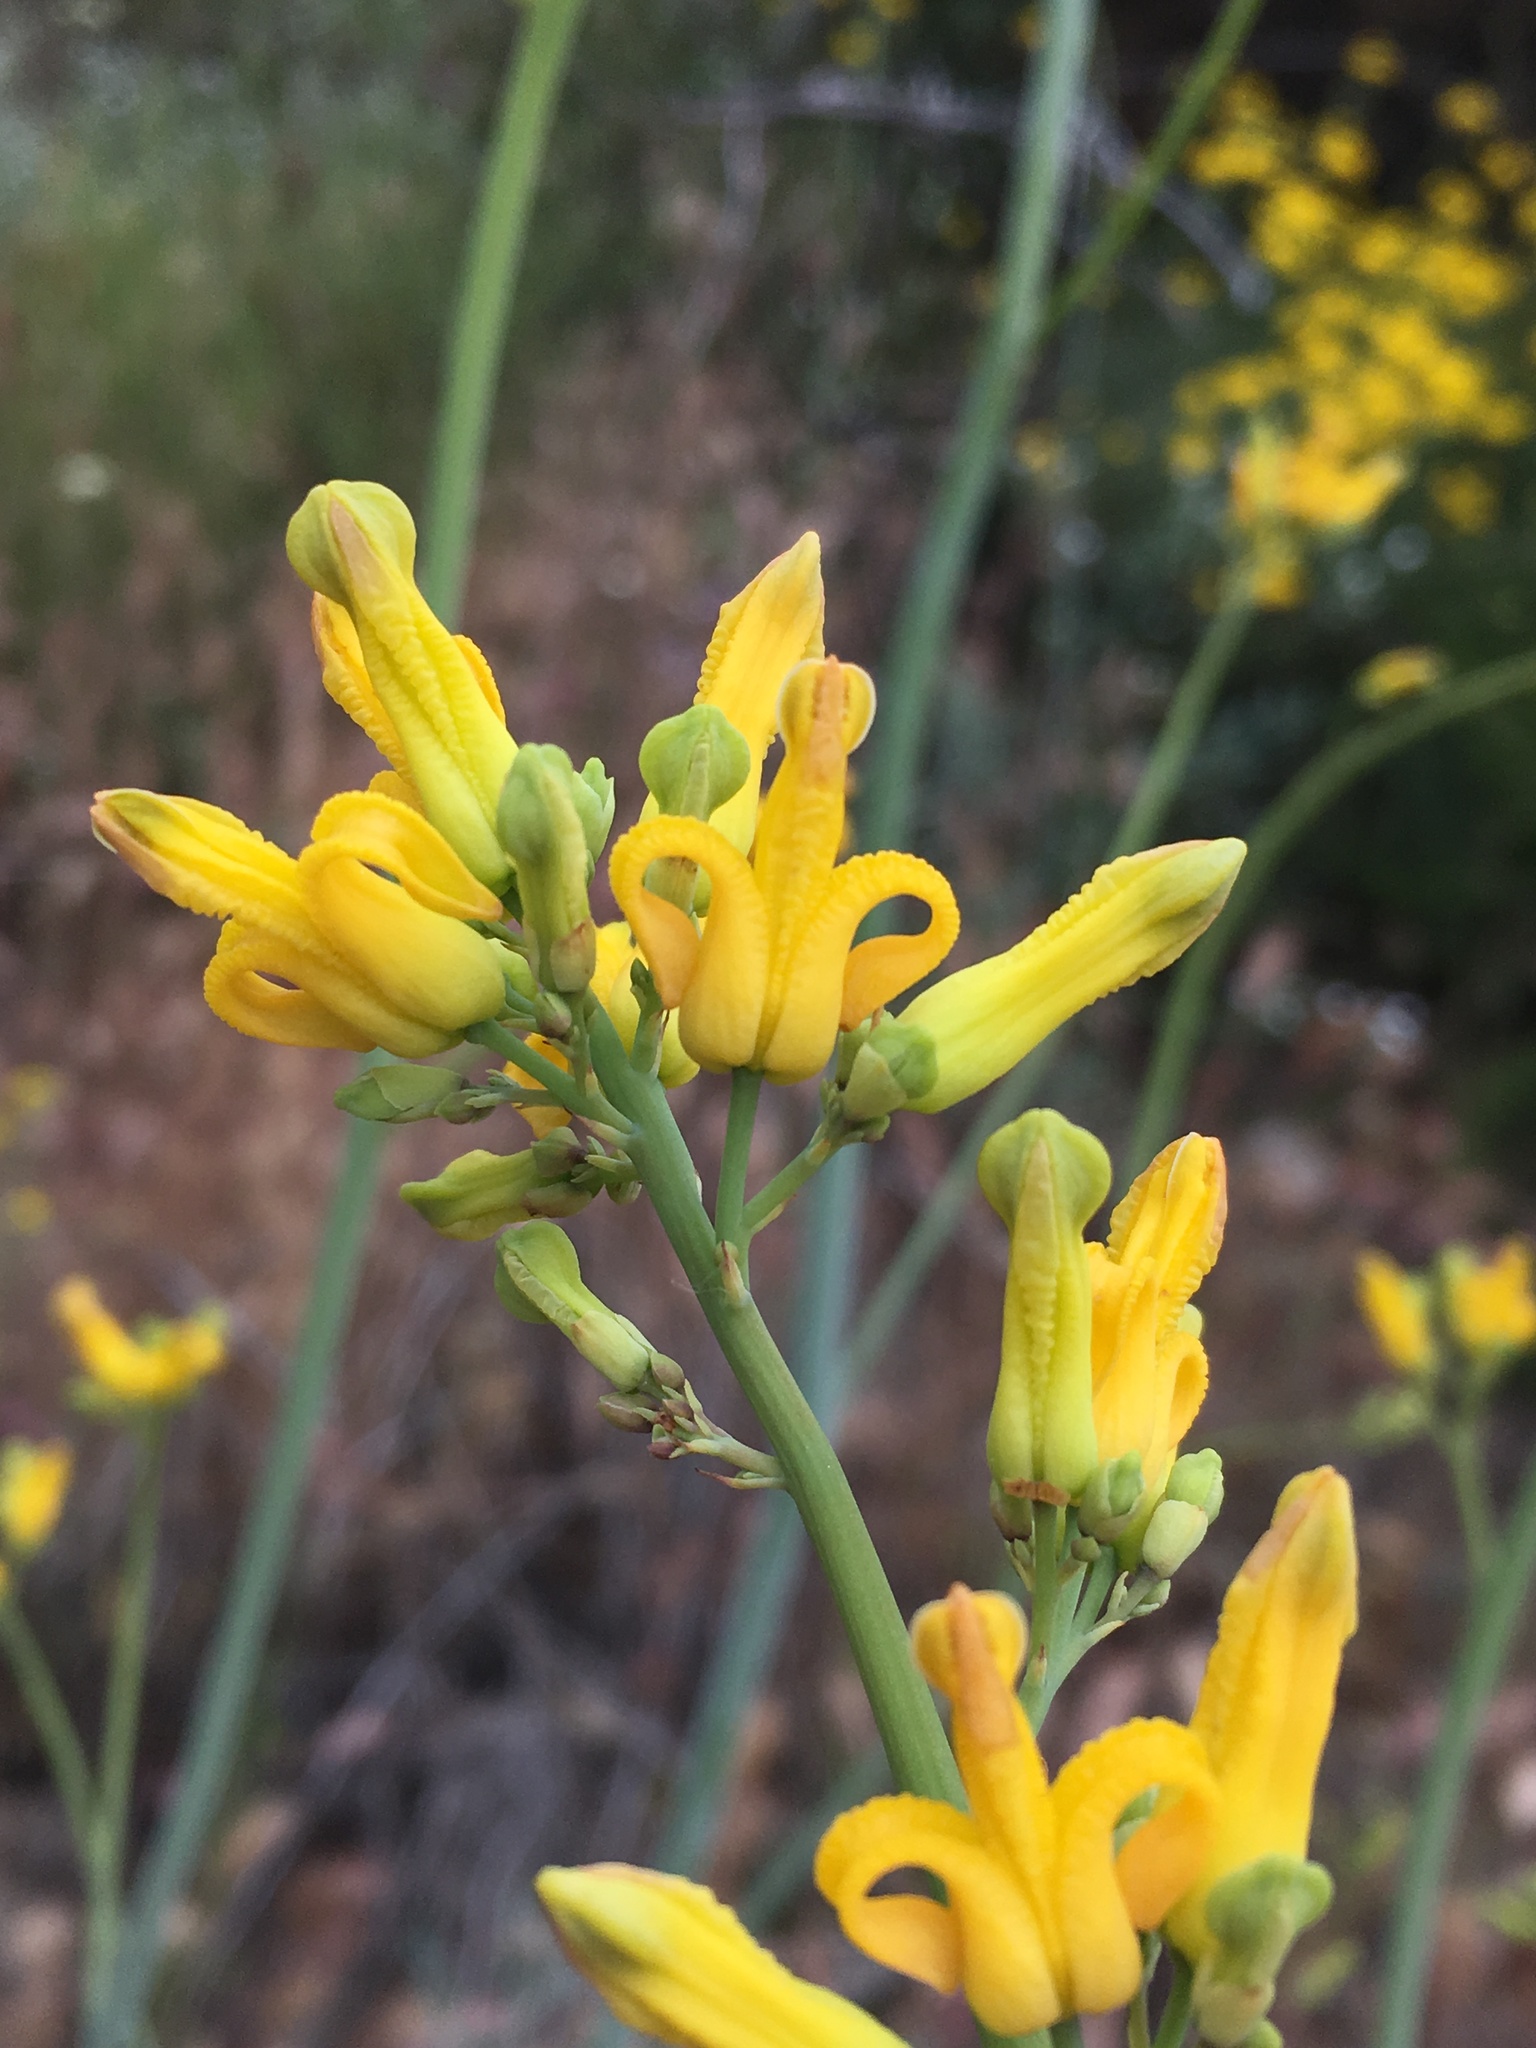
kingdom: Plantae
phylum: Tracheophyta
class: Magnoliopsida
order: Ranunculales
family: Papaveraceae
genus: Ehrendorferia
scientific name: Ehrendorferia chrysantha
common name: Golden eardrops
